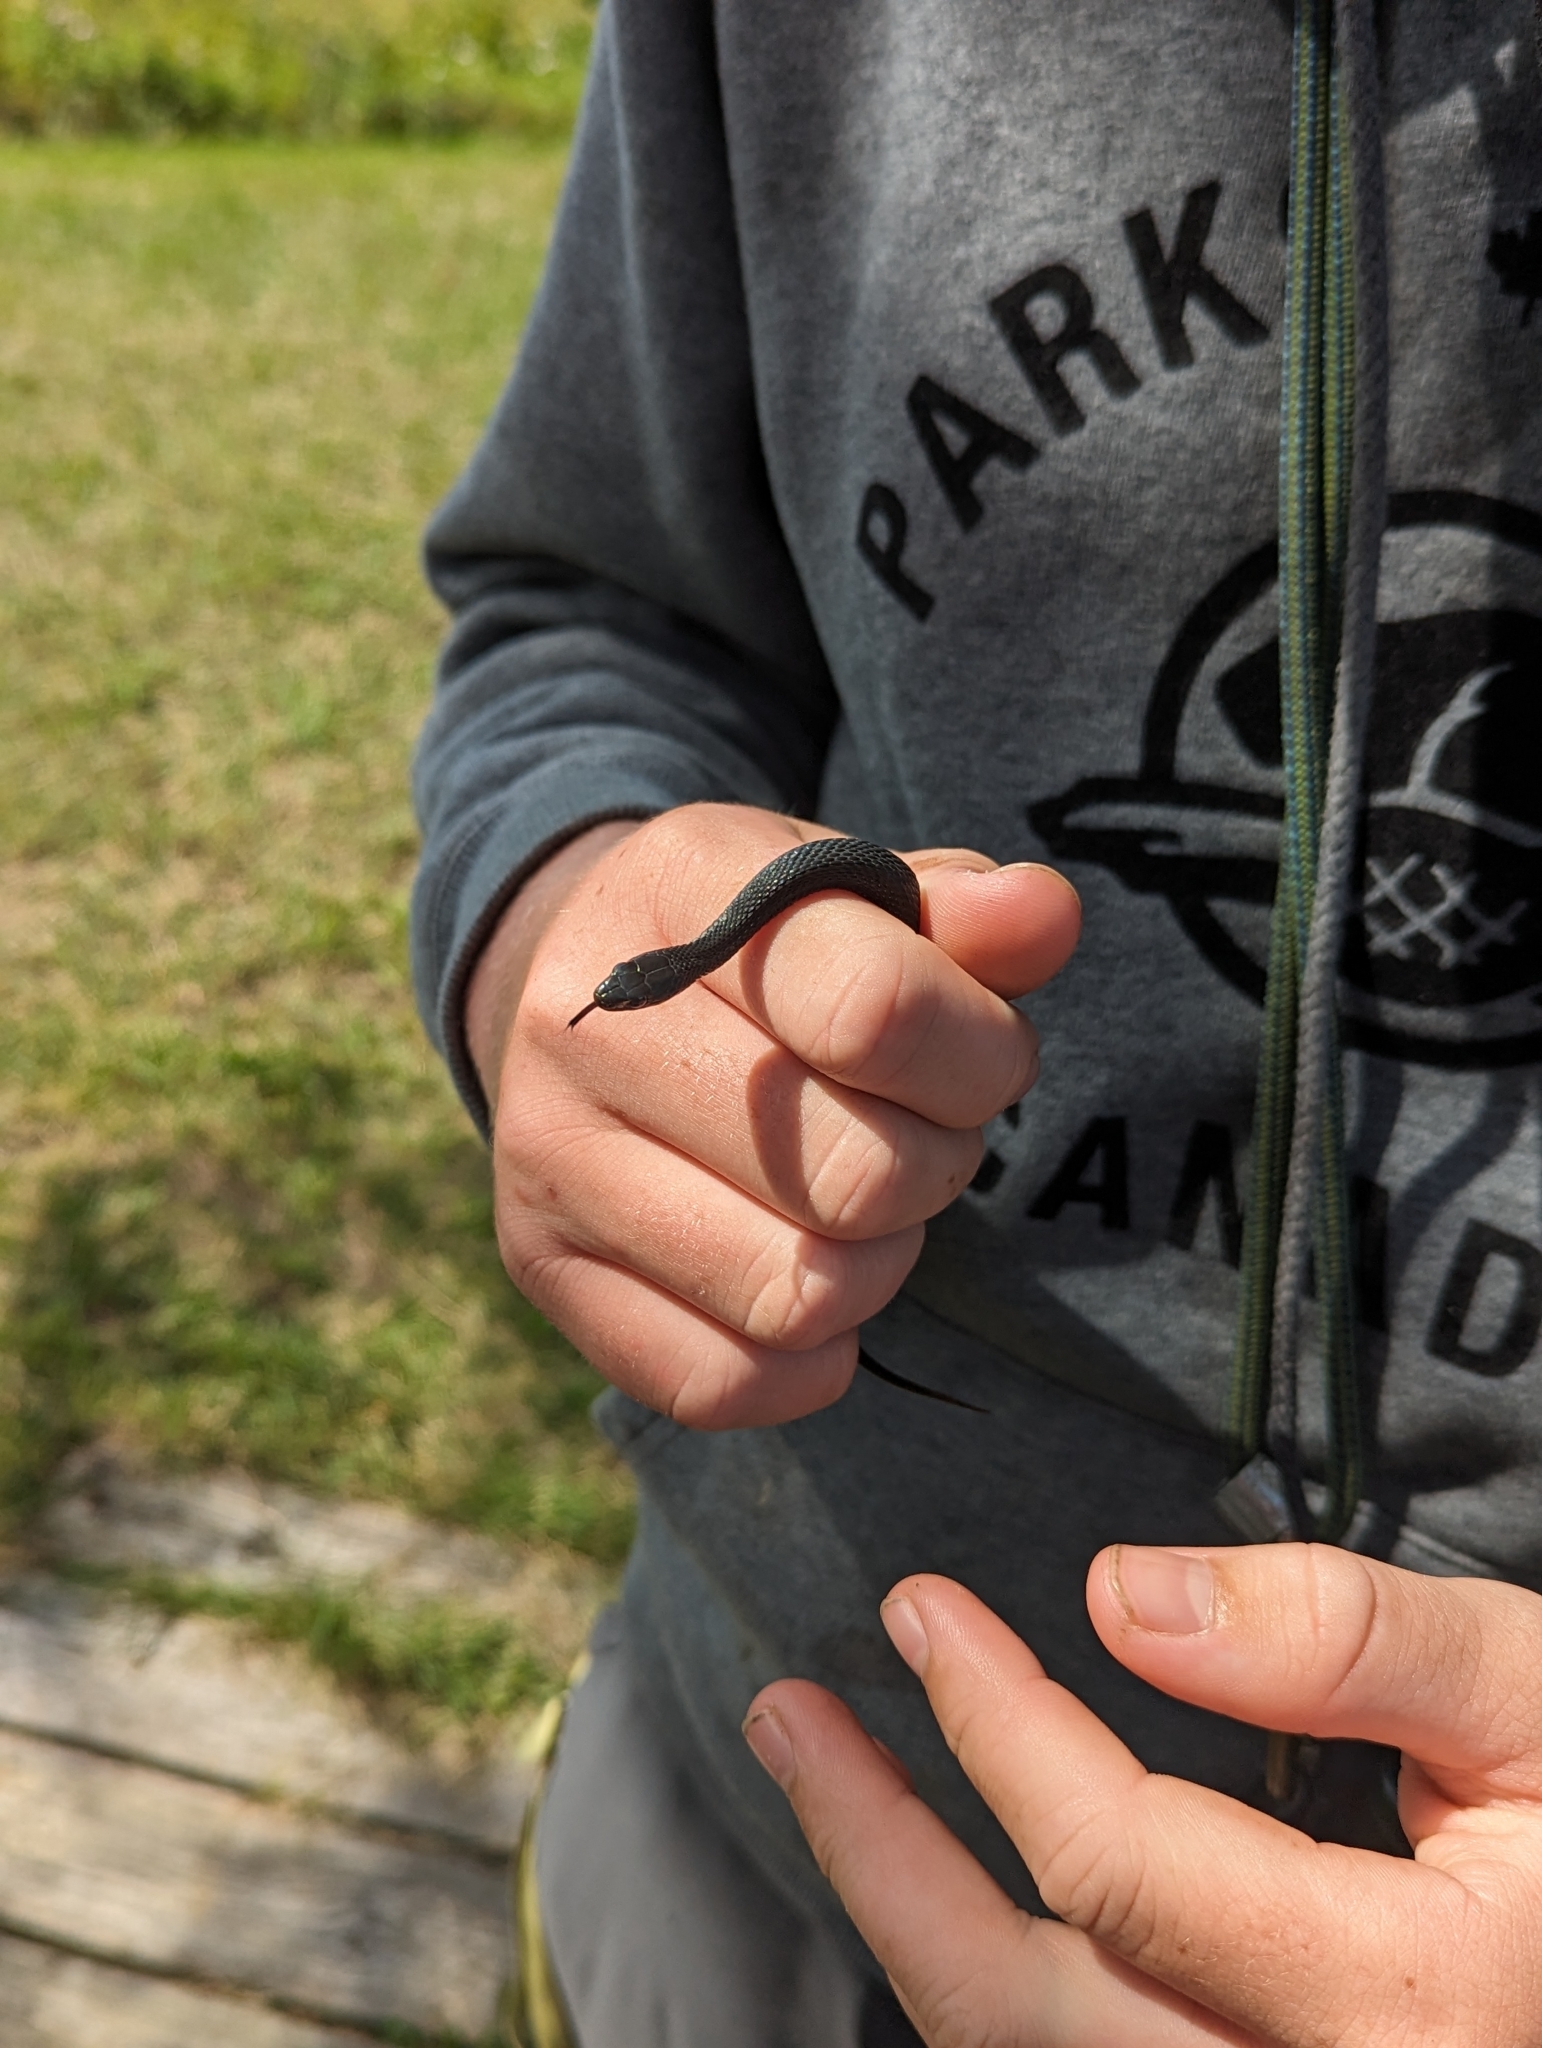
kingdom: Animalia
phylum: Chordata
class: Squamata
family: Colubridae
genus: Thamnophis
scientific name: Thamnophis sirtalis
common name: Common garter snake
